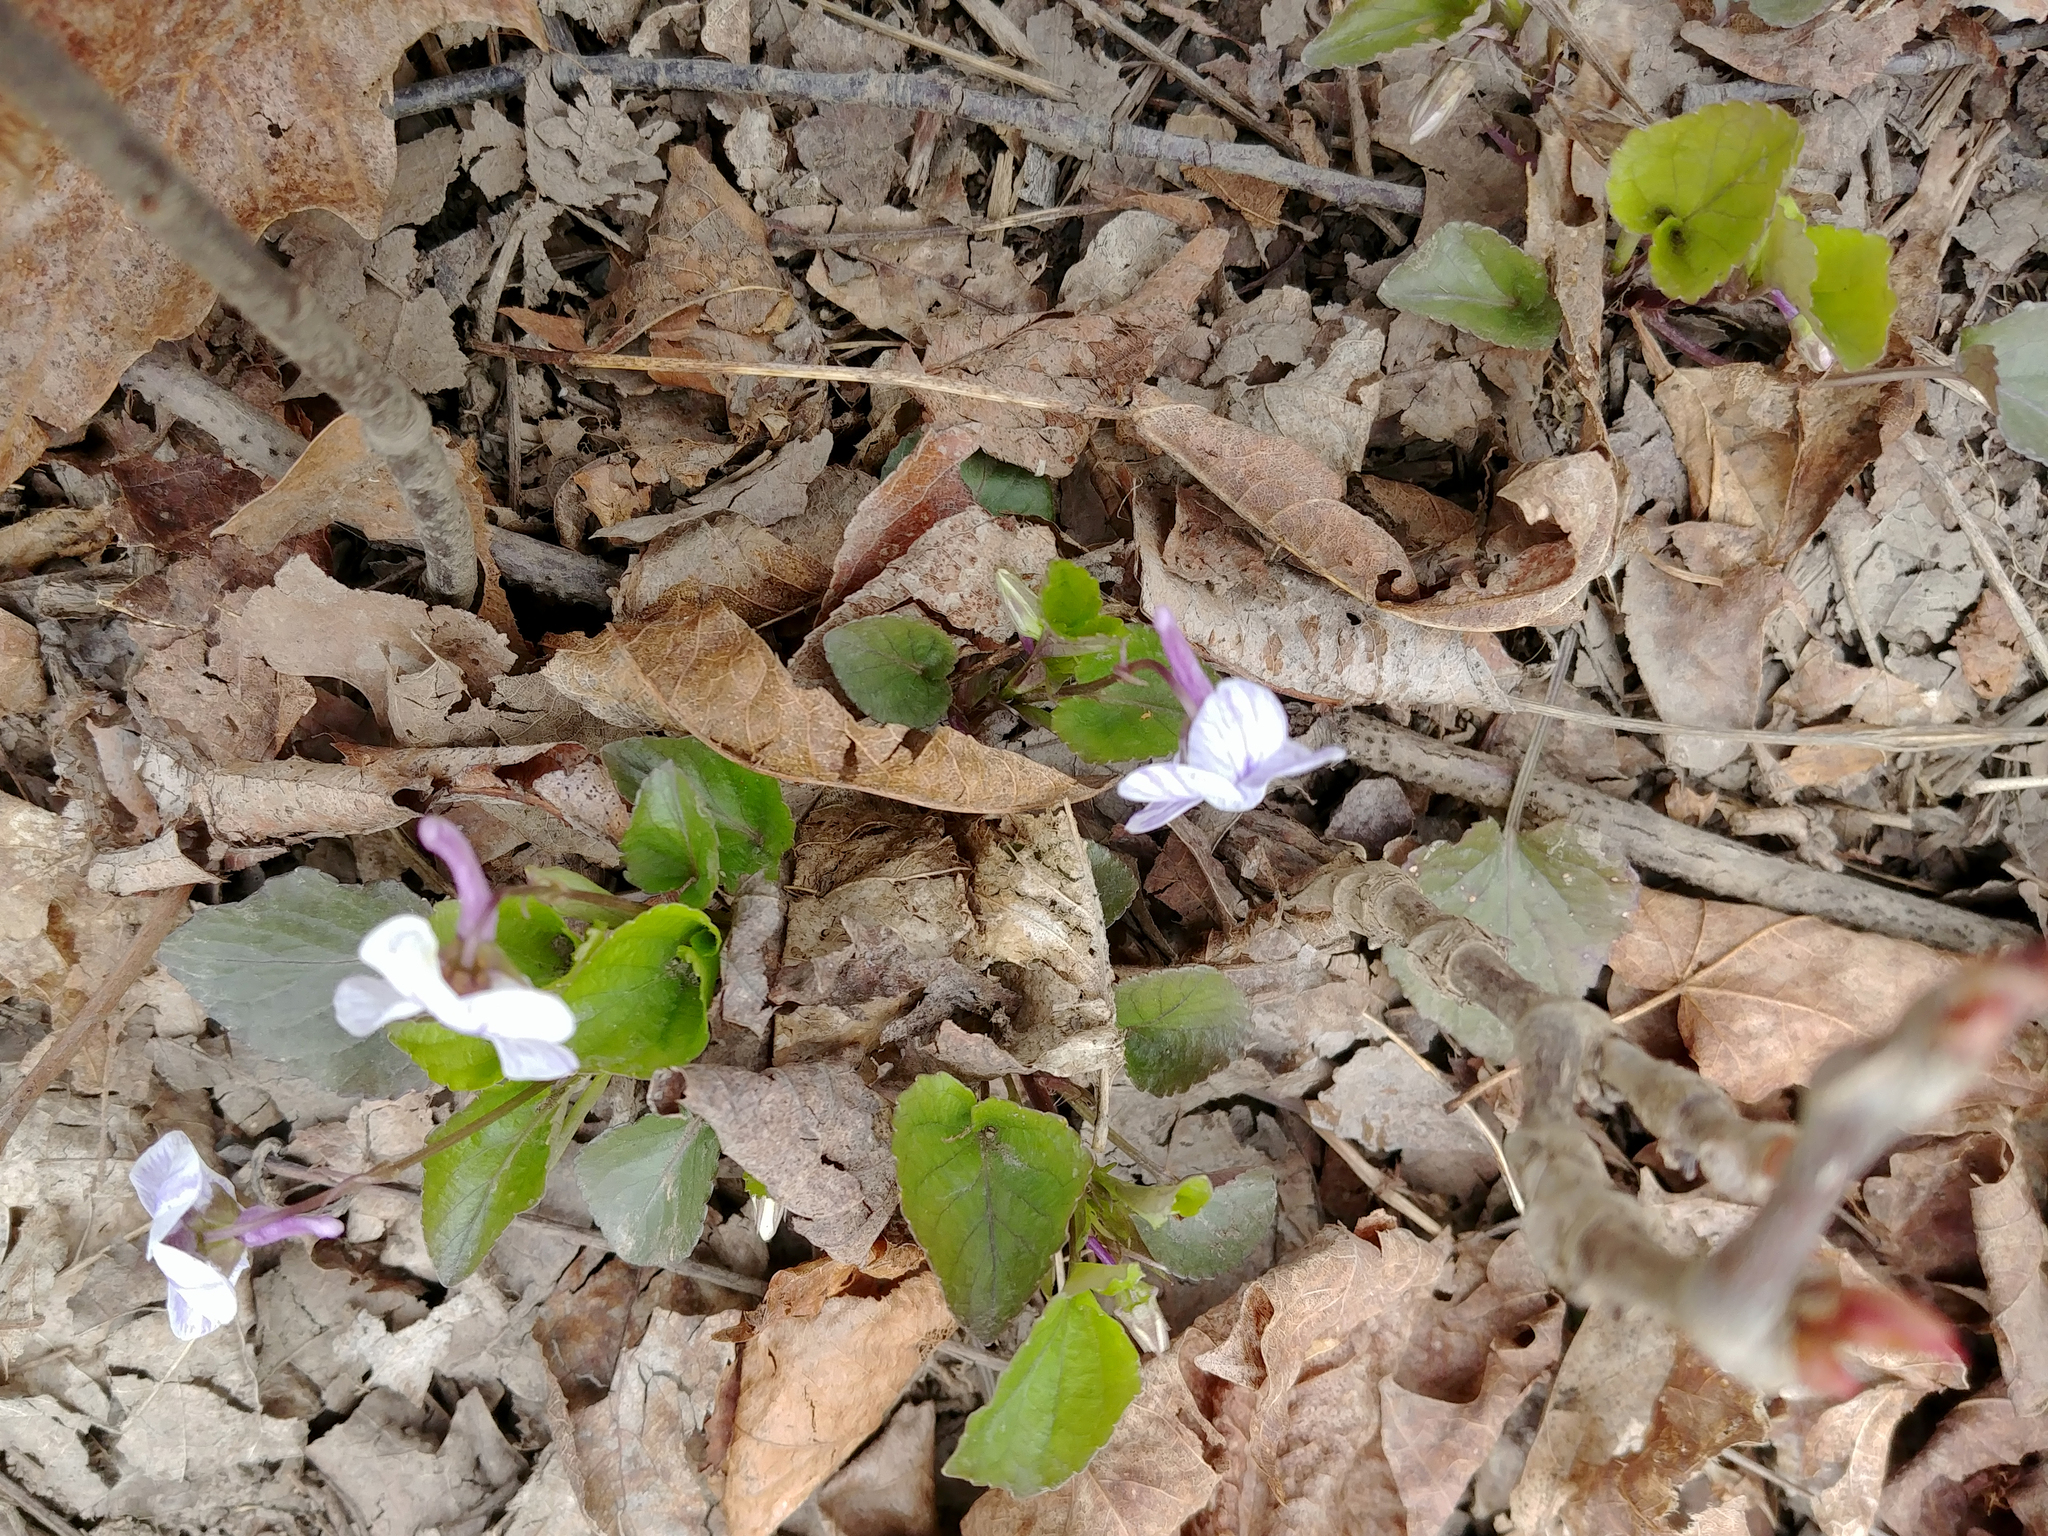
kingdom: Plantae
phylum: Tracheophyta
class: Magnoliopsida
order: Malpighiales
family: Violaceae
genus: Viola
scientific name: Viola rostrata
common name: Long-spur violet
